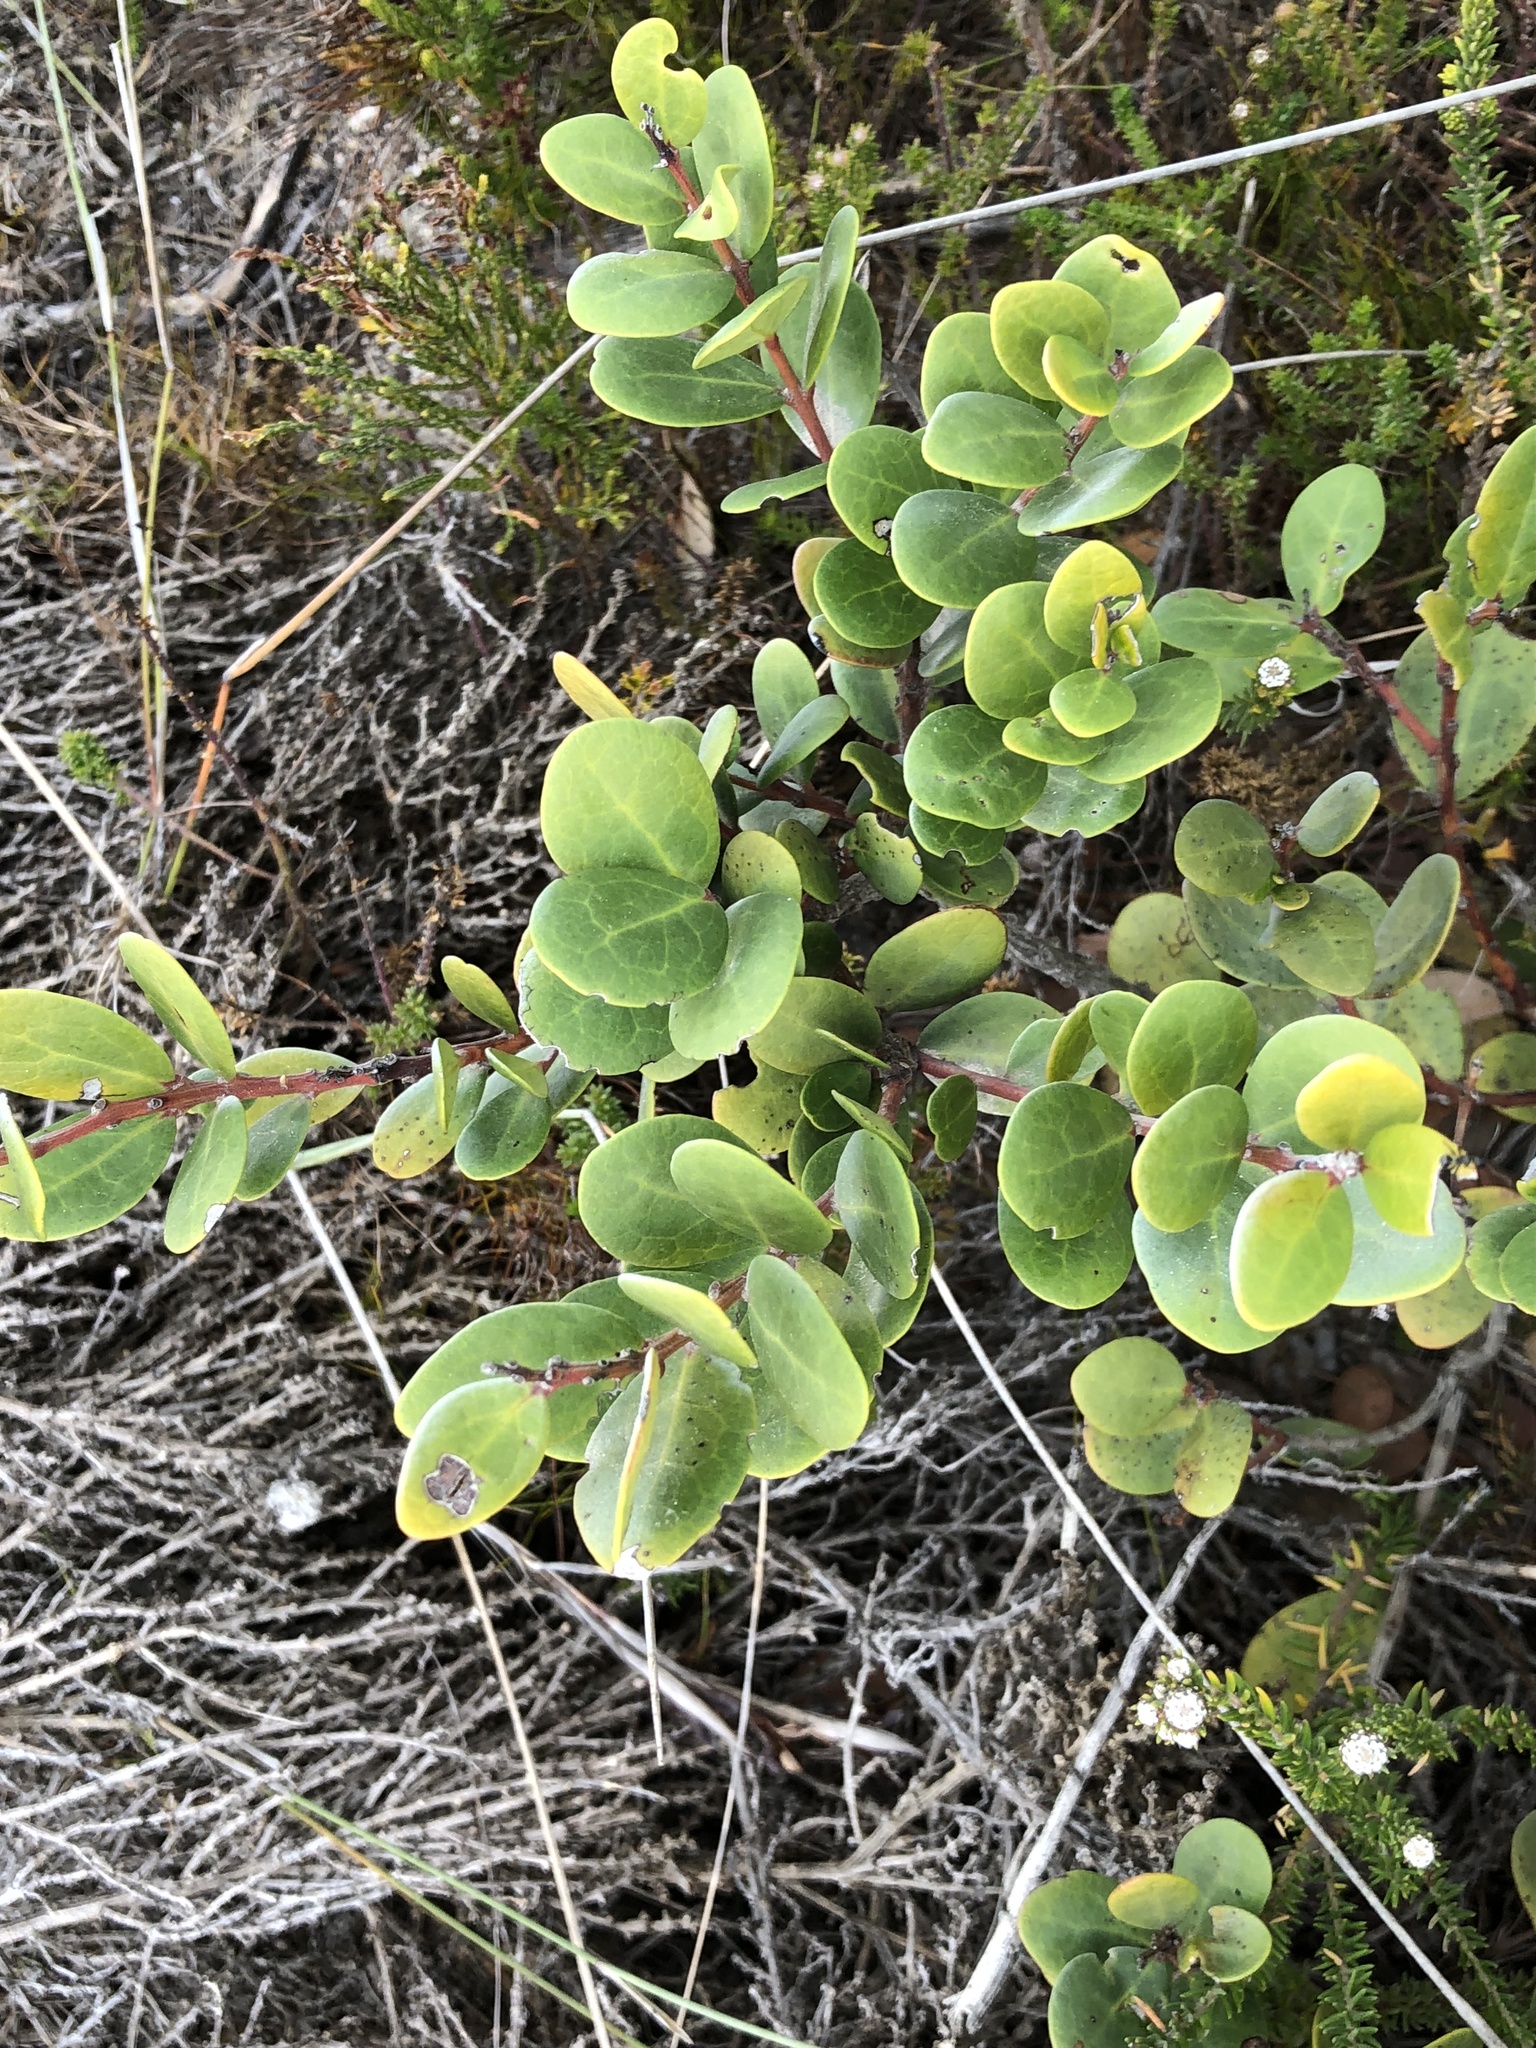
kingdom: Plantae
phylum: Tracheophyta
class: Magnoliopsida
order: Ericales
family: Ebenaceae
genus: Euclea
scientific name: Euclea racemosa
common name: Dune guarri
